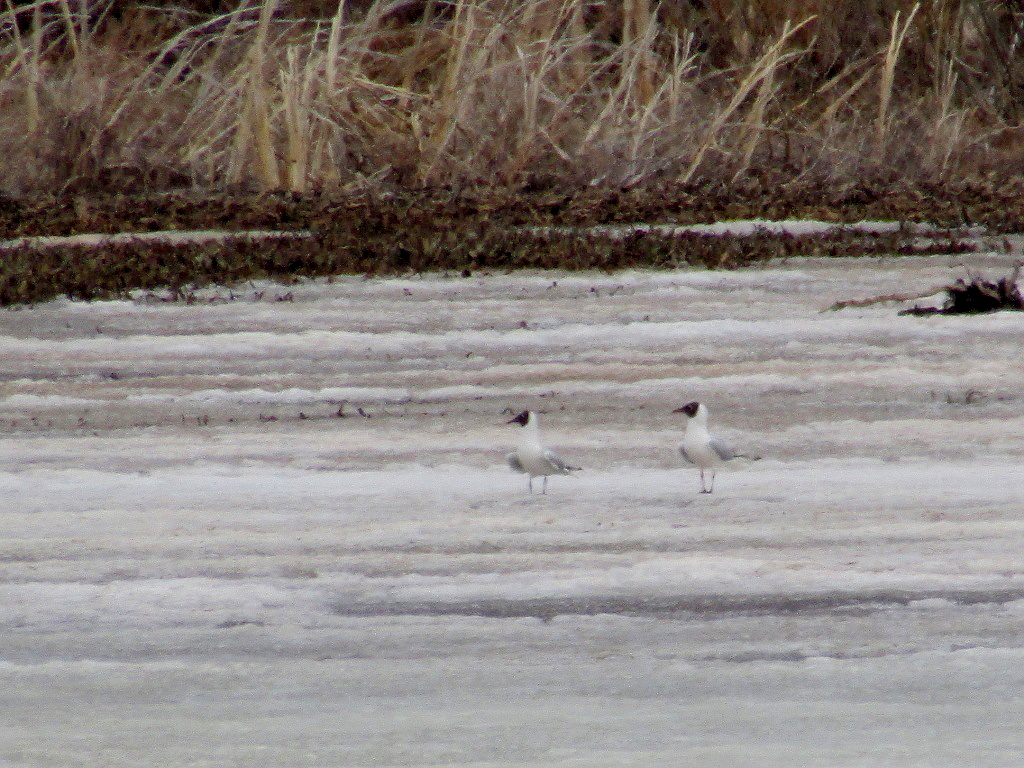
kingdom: Animalia
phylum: Chordata
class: Aves
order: Charadriiformes
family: Laridae
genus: Chroicocephalus
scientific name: Chroicocephalus ridibundus
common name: Black-headed gull
